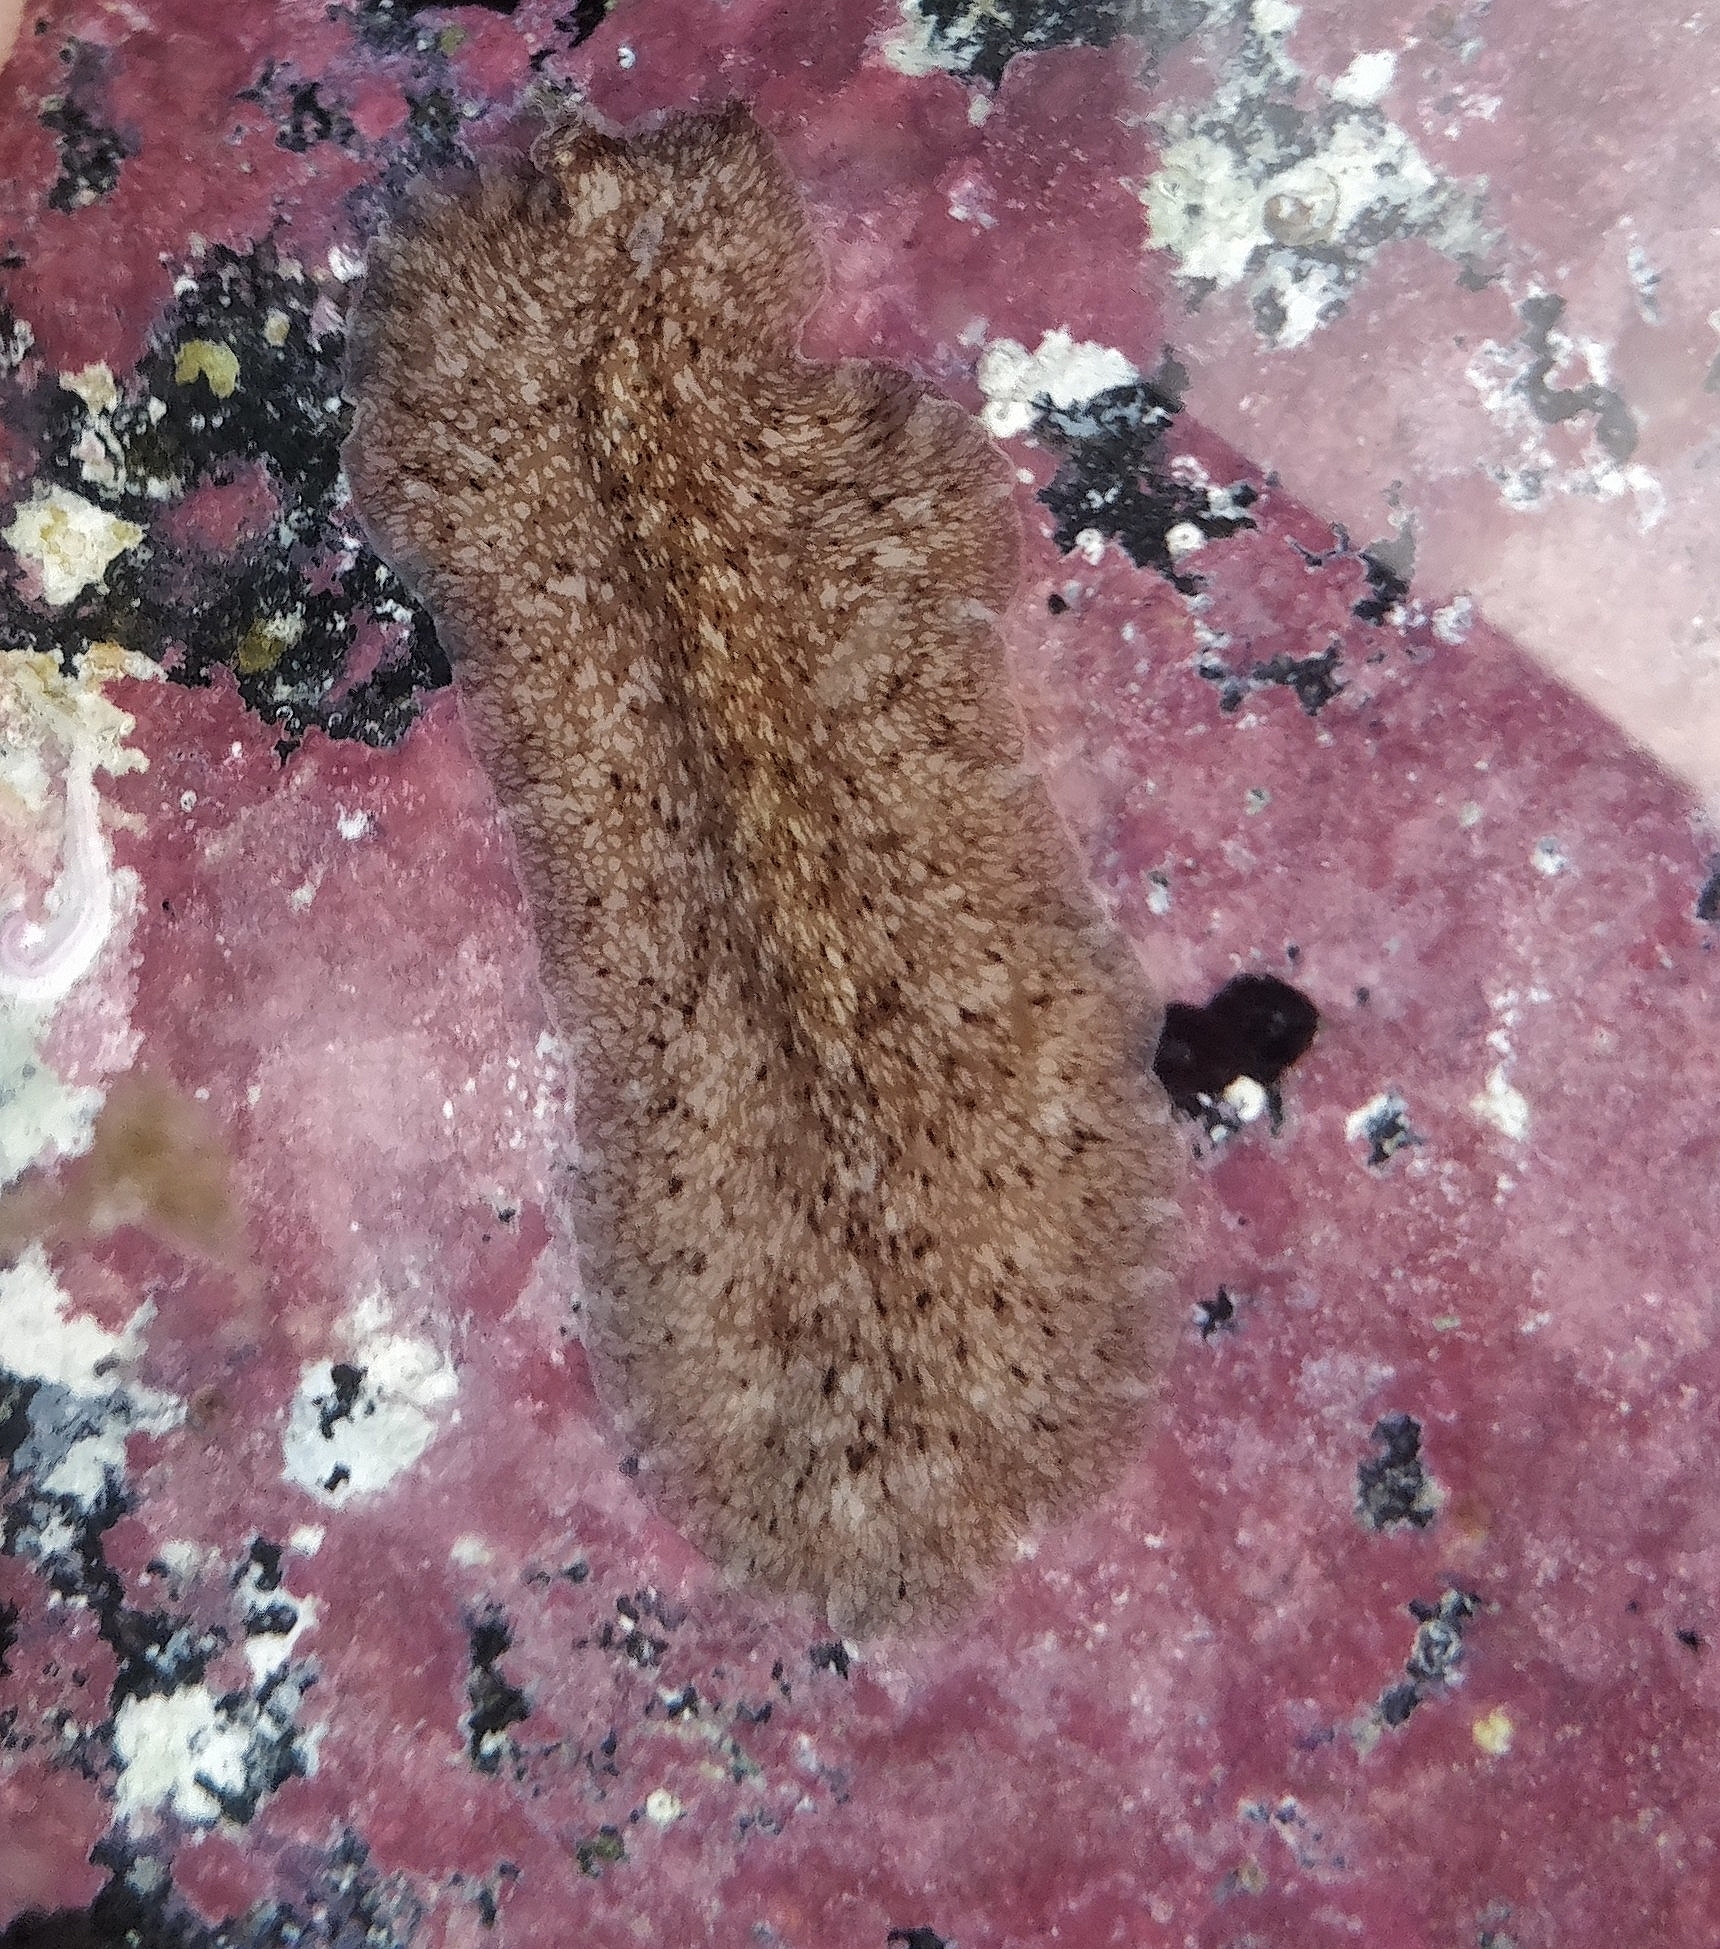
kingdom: Animalia
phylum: Platyhelminthes
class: Turbellaria
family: Pericelidae
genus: Pericelis
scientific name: Pericelis cata
